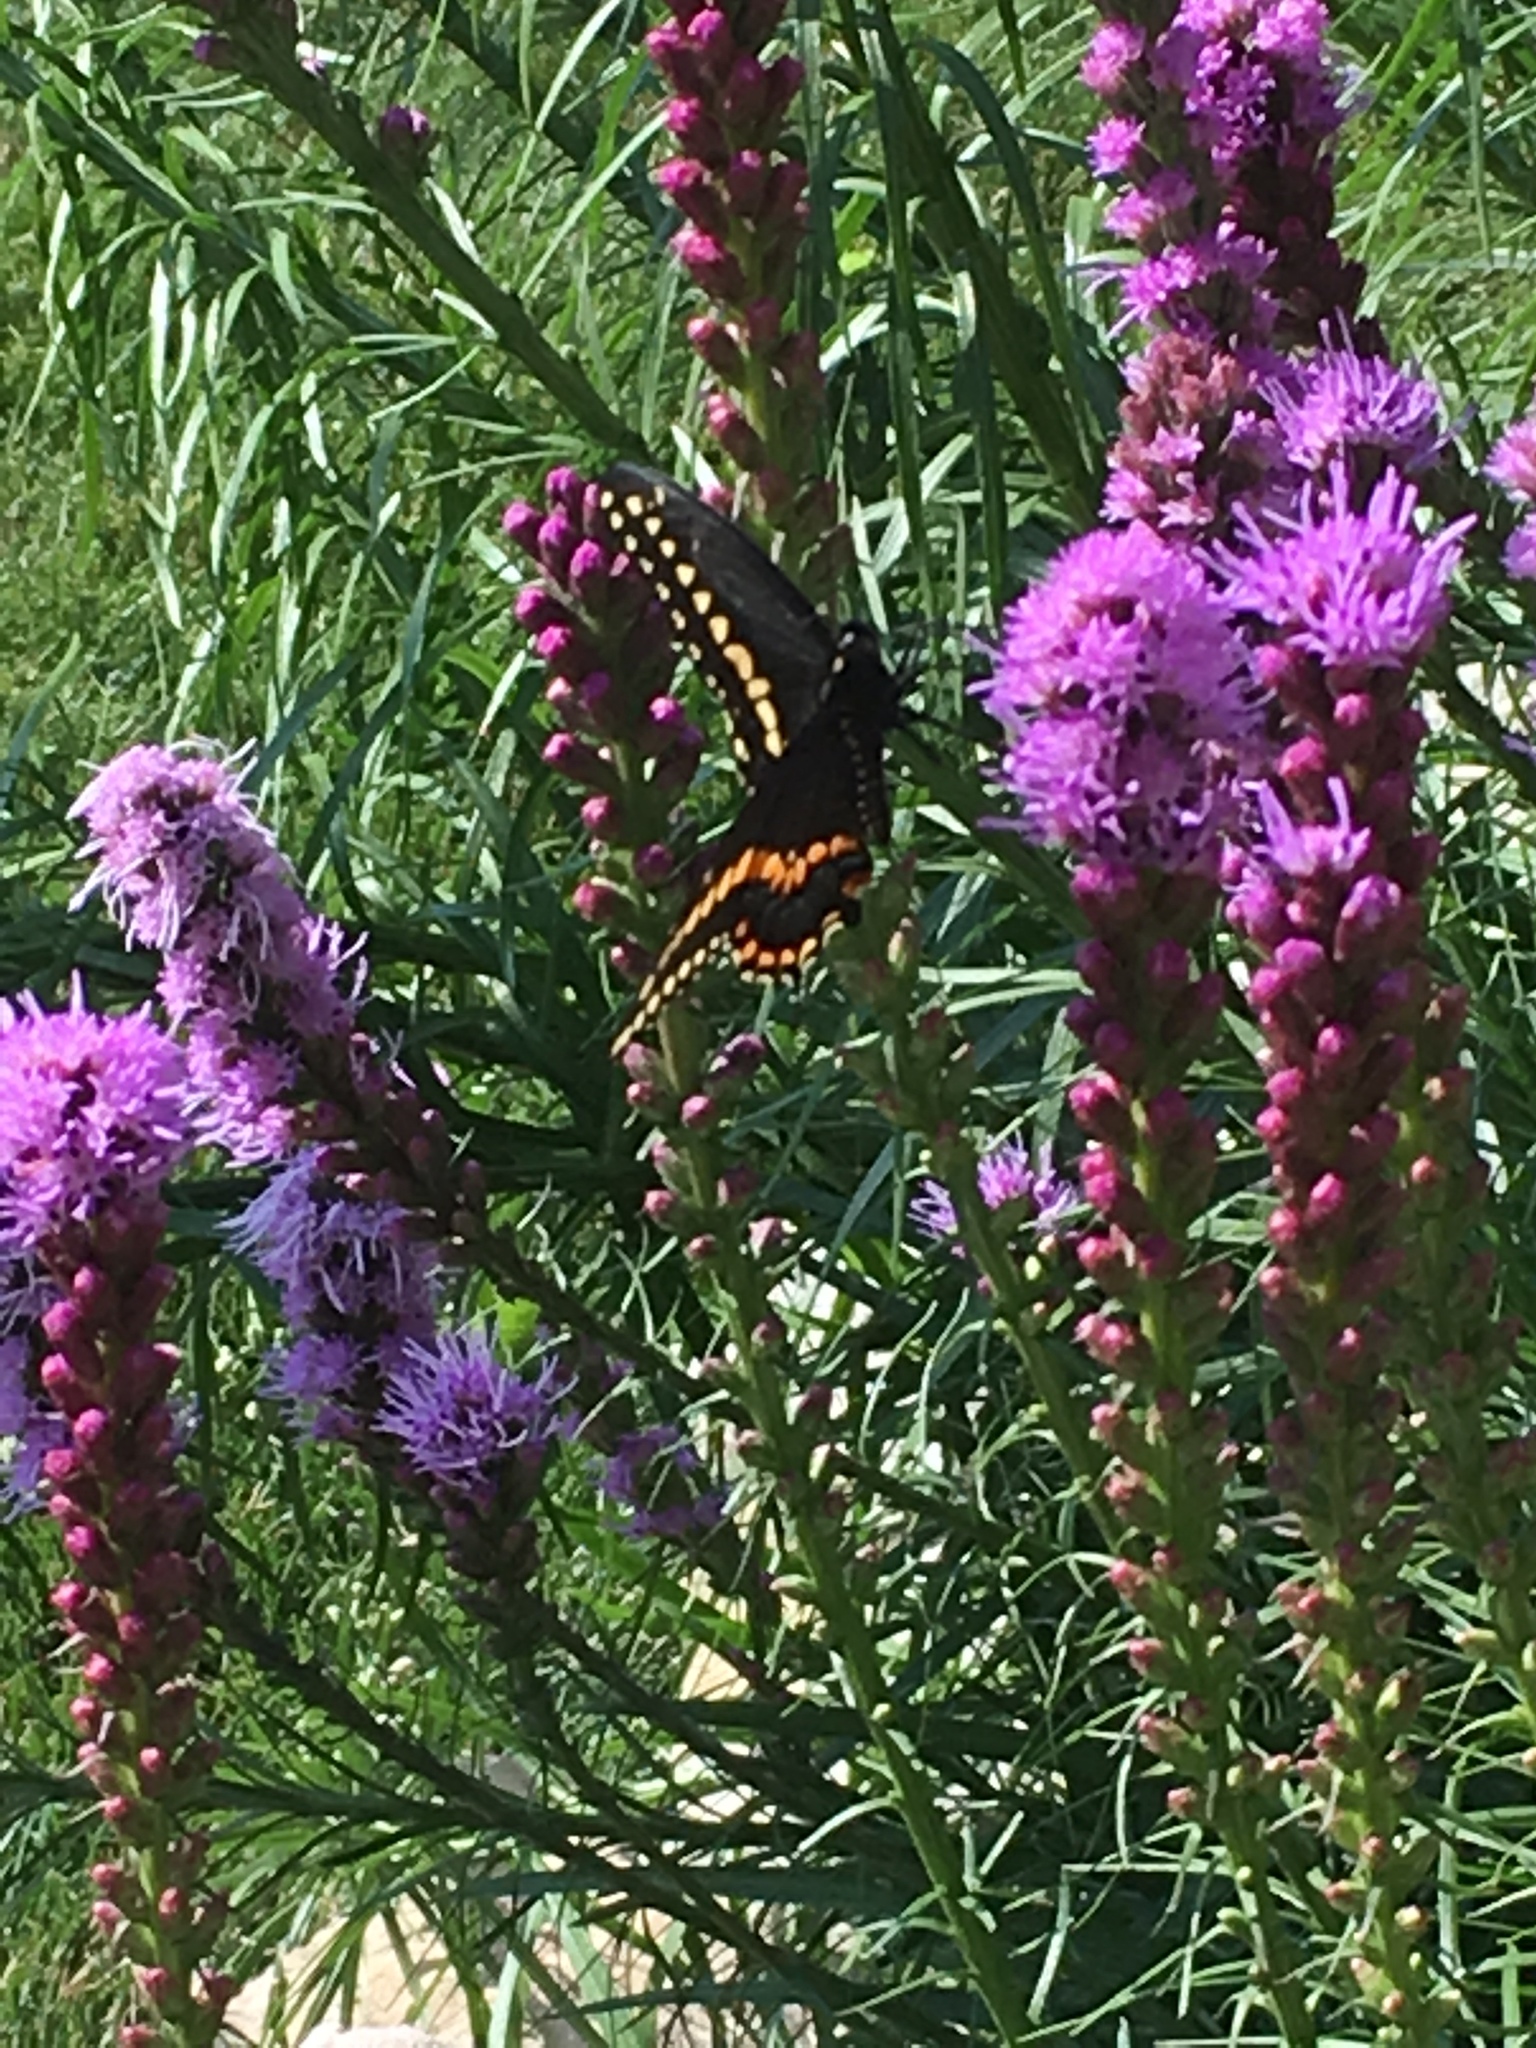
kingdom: Animalia
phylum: Arthropoda
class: Insecta
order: Lepidoptera
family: Papilionidae
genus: Papilio
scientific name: Papilio polyxenes
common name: Black swallowtail
